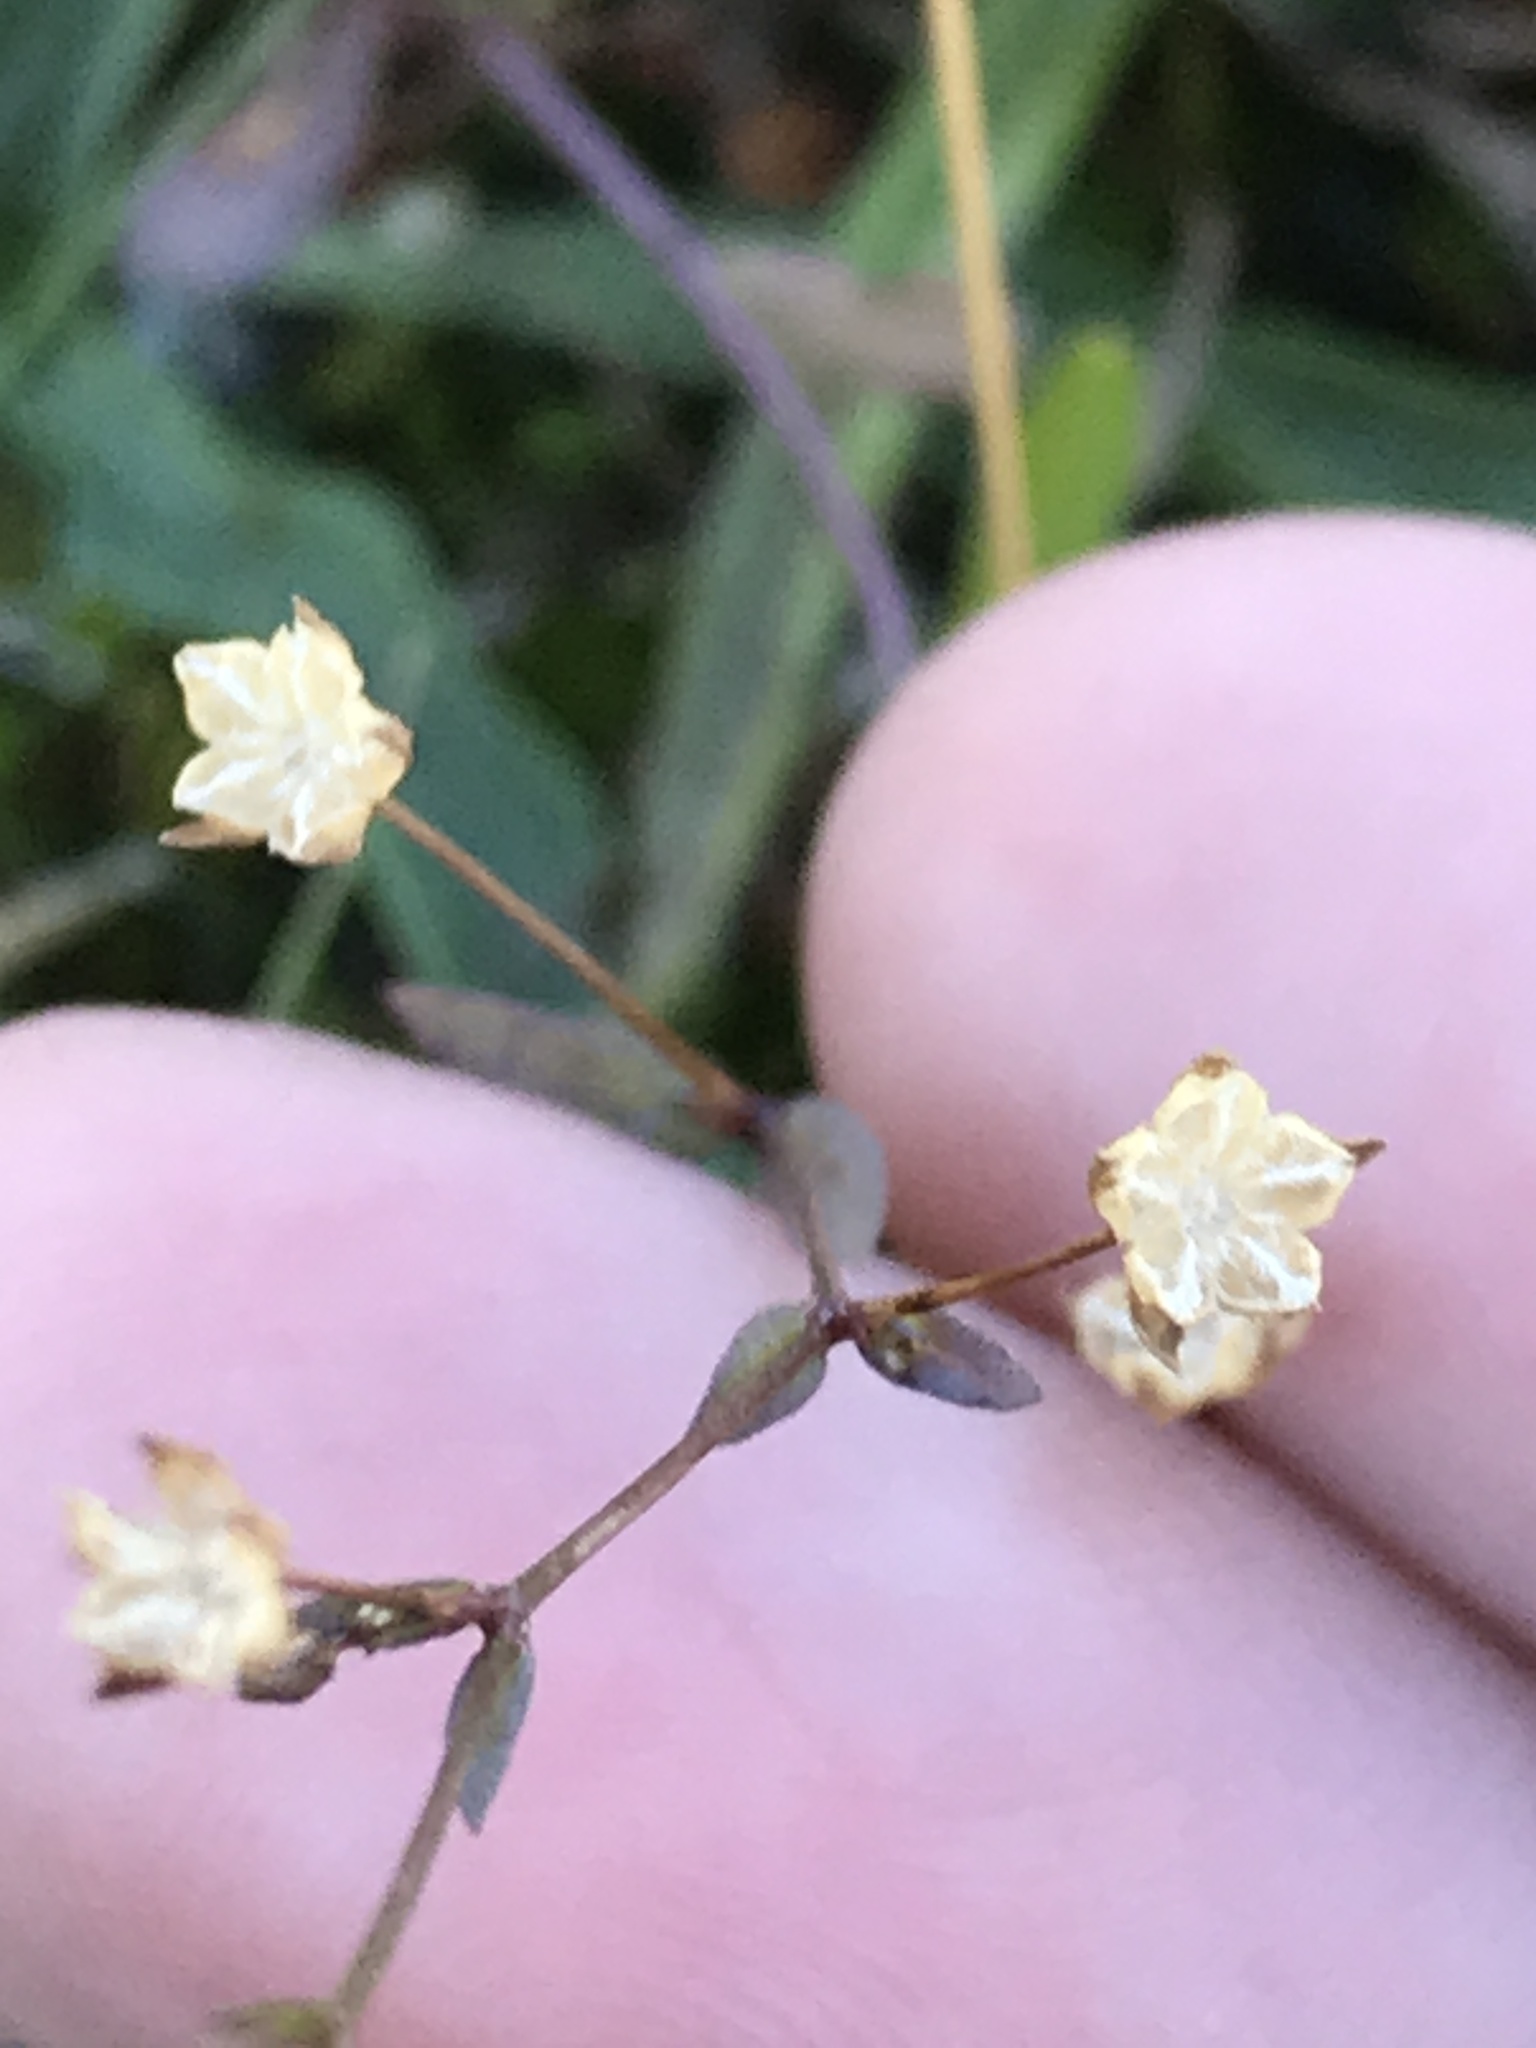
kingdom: Plantae
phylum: Tracheophyta
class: Magnoliopsida
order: Malpighiales
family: Linaceae
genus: Linum
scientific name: Linum catharticum
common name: Fairy flax
